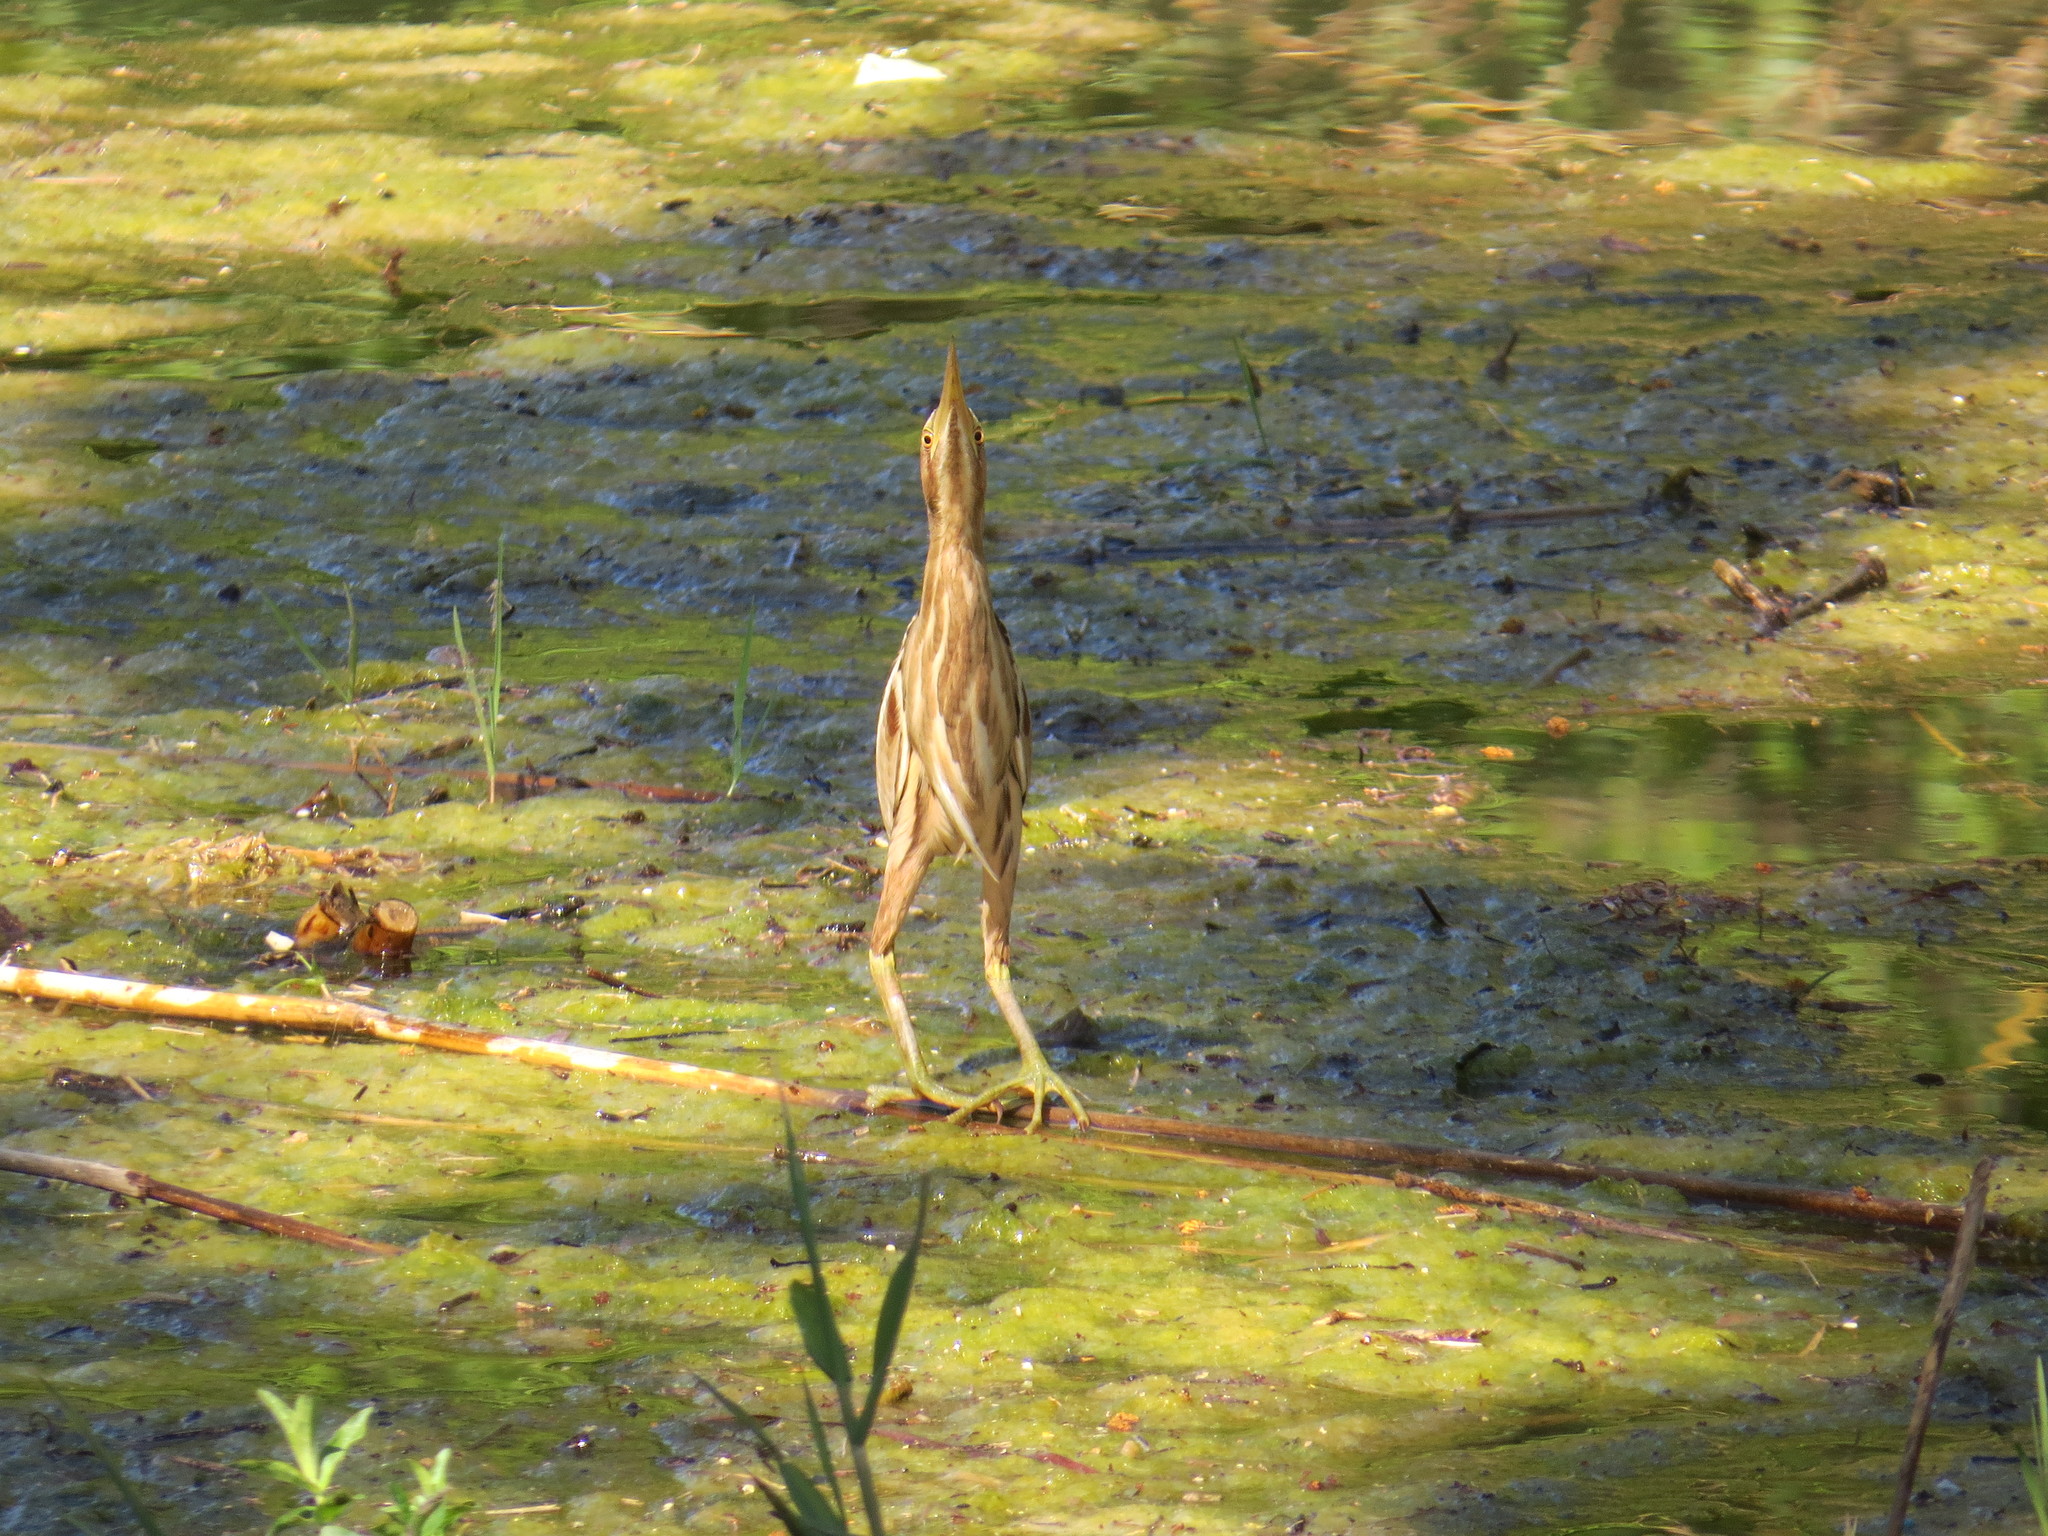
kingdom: Animalia
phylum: Chordata
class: Aves
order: Pelecaniformes
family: Ardeidae
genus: Ixobrychus
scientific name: Ixobrychus minutus
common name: Little bittern
